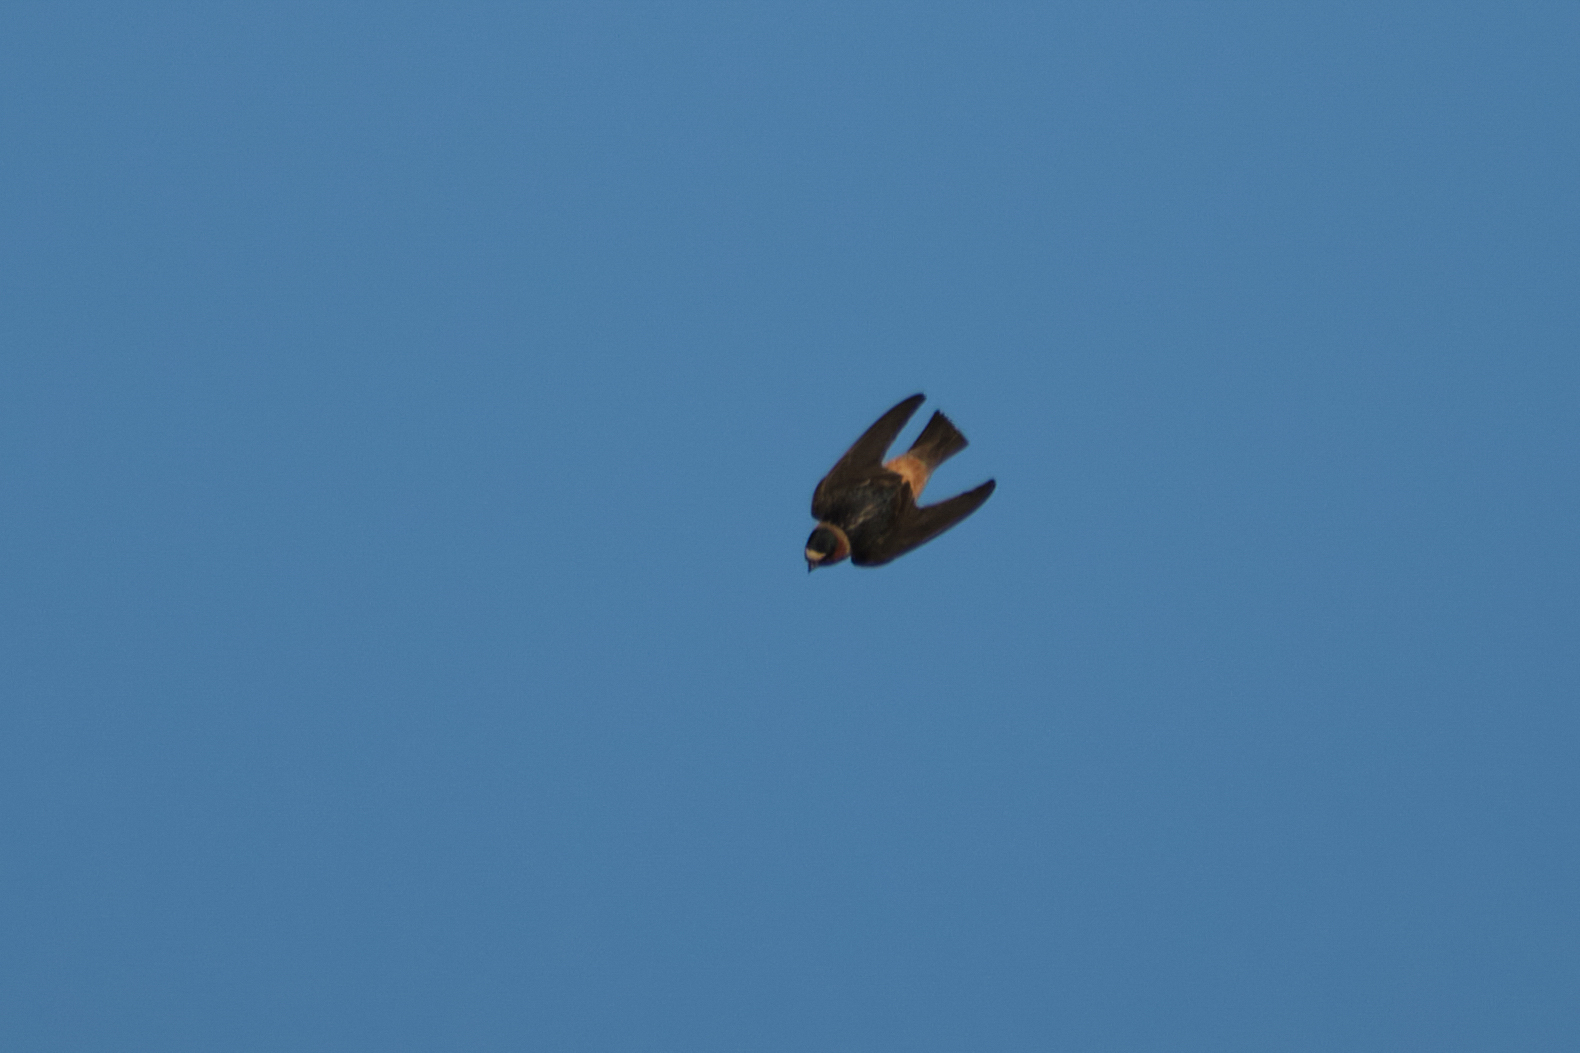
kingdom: Animalia
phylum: Chordata
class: Aves
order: Passeriformes
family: Hirundinidae
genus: Petrochelidon
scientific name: Petrochelidon pyrrhonota
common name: American cliff swallow
